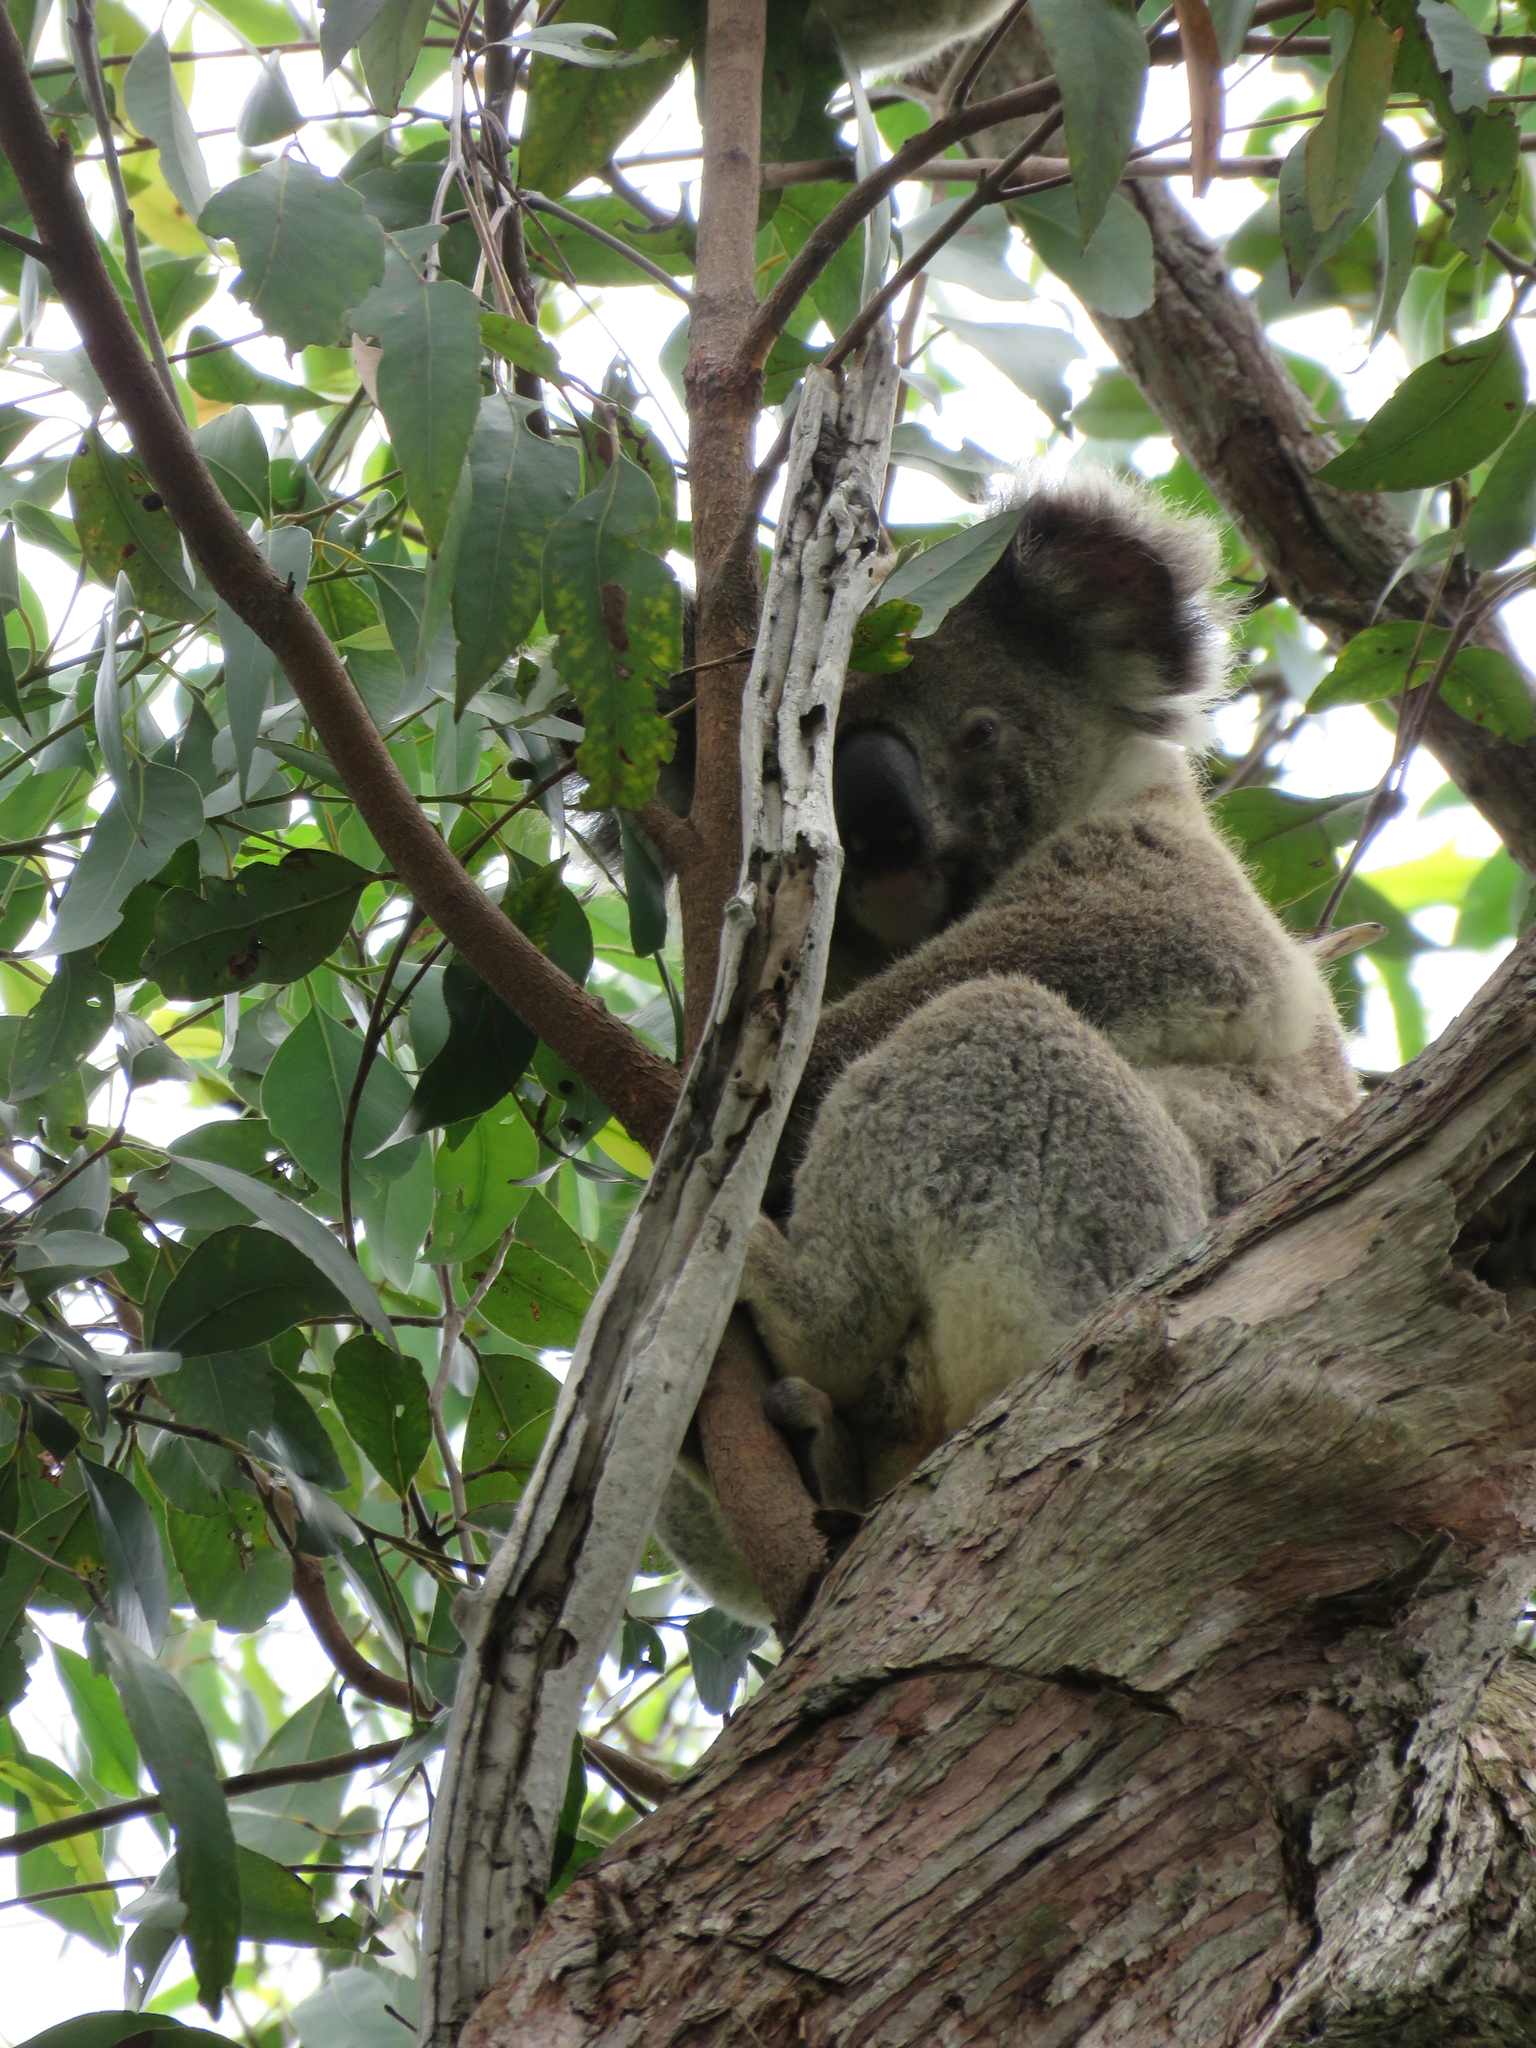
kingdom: Animalia
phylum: Chordata
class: Mammalia
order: Diprotodontia
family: Phascolarctidae
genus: Phascolarctos
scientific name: Phascolarctos cinereus
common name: Koala
